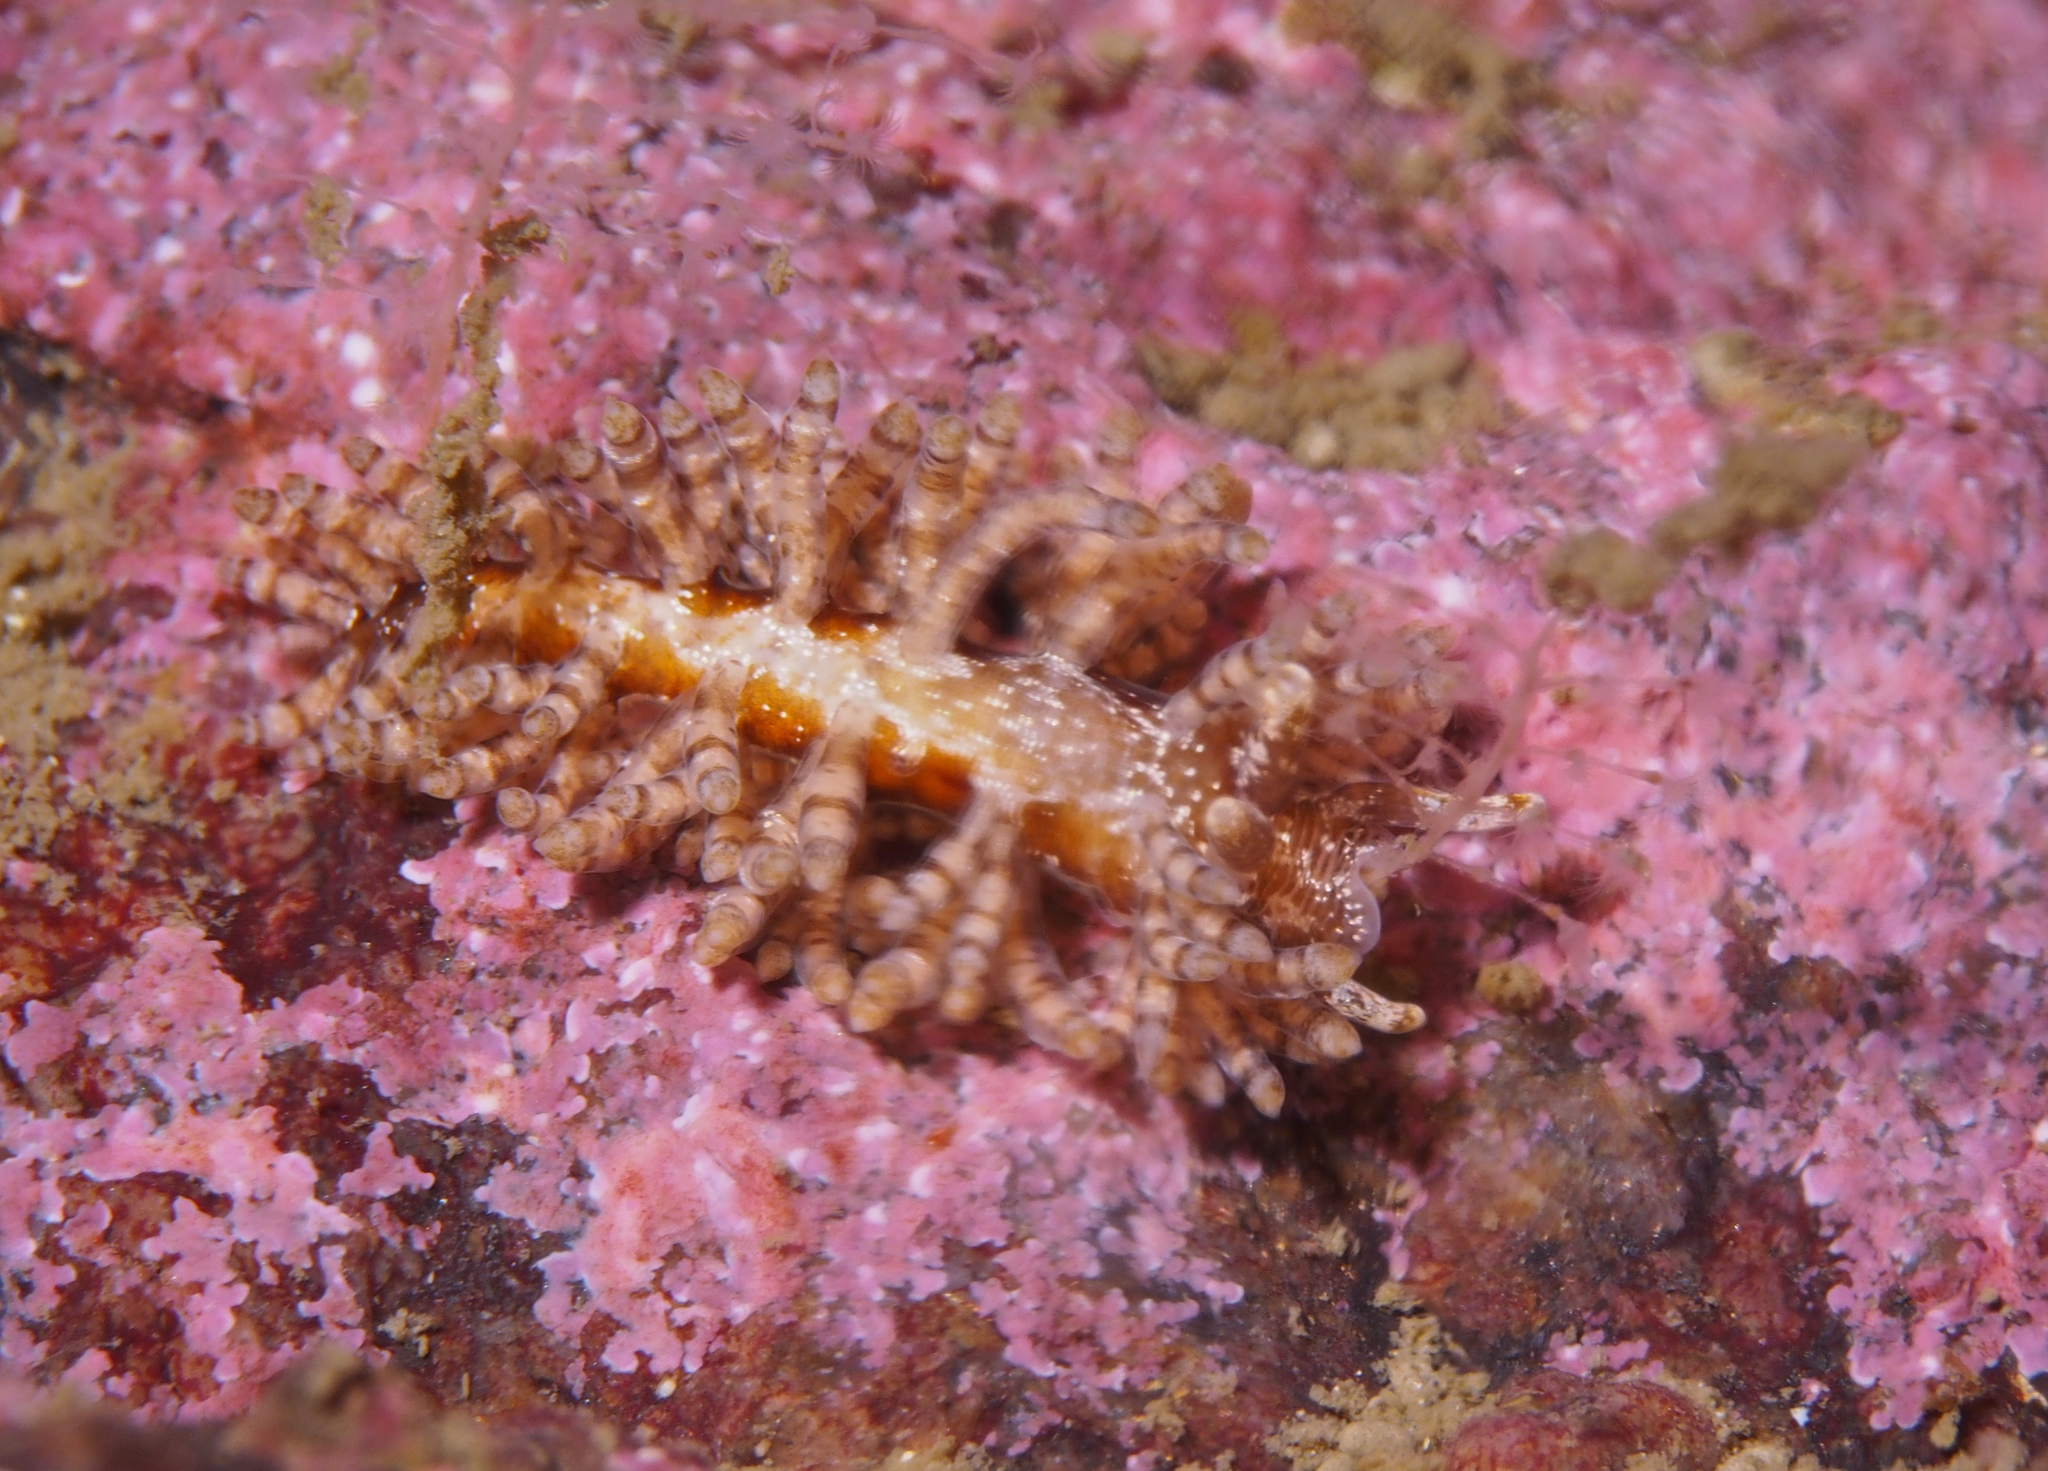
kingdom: Animalia
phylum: Mollusca
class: Gastropoda
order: Nudibranchia
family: Eubranchidae
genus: Eubranchus
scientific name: Eubranchus vittatus
